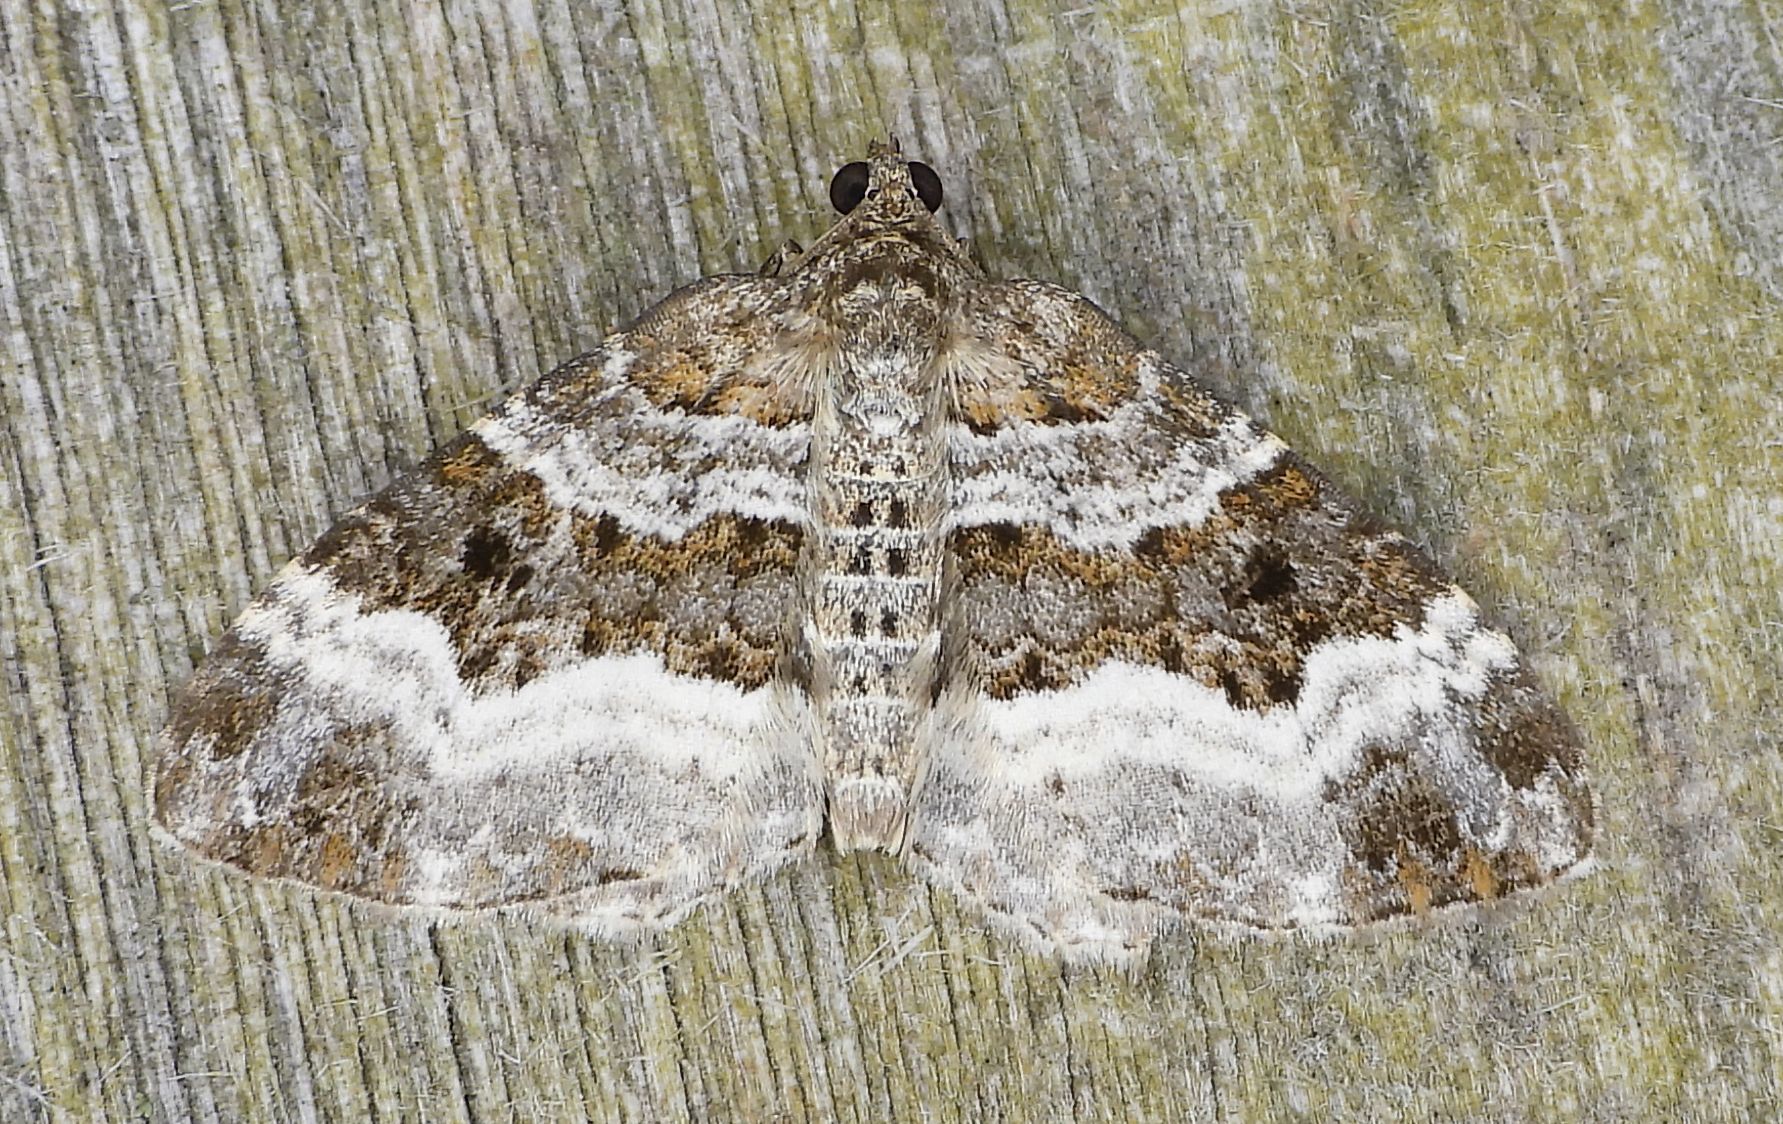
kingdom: Animalia
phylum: Arthropoda
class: Insecta
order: Lepidoptera
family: Geometridae
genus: Epirrhoe
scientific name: Epirrhoe alternata
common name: Common carpet
